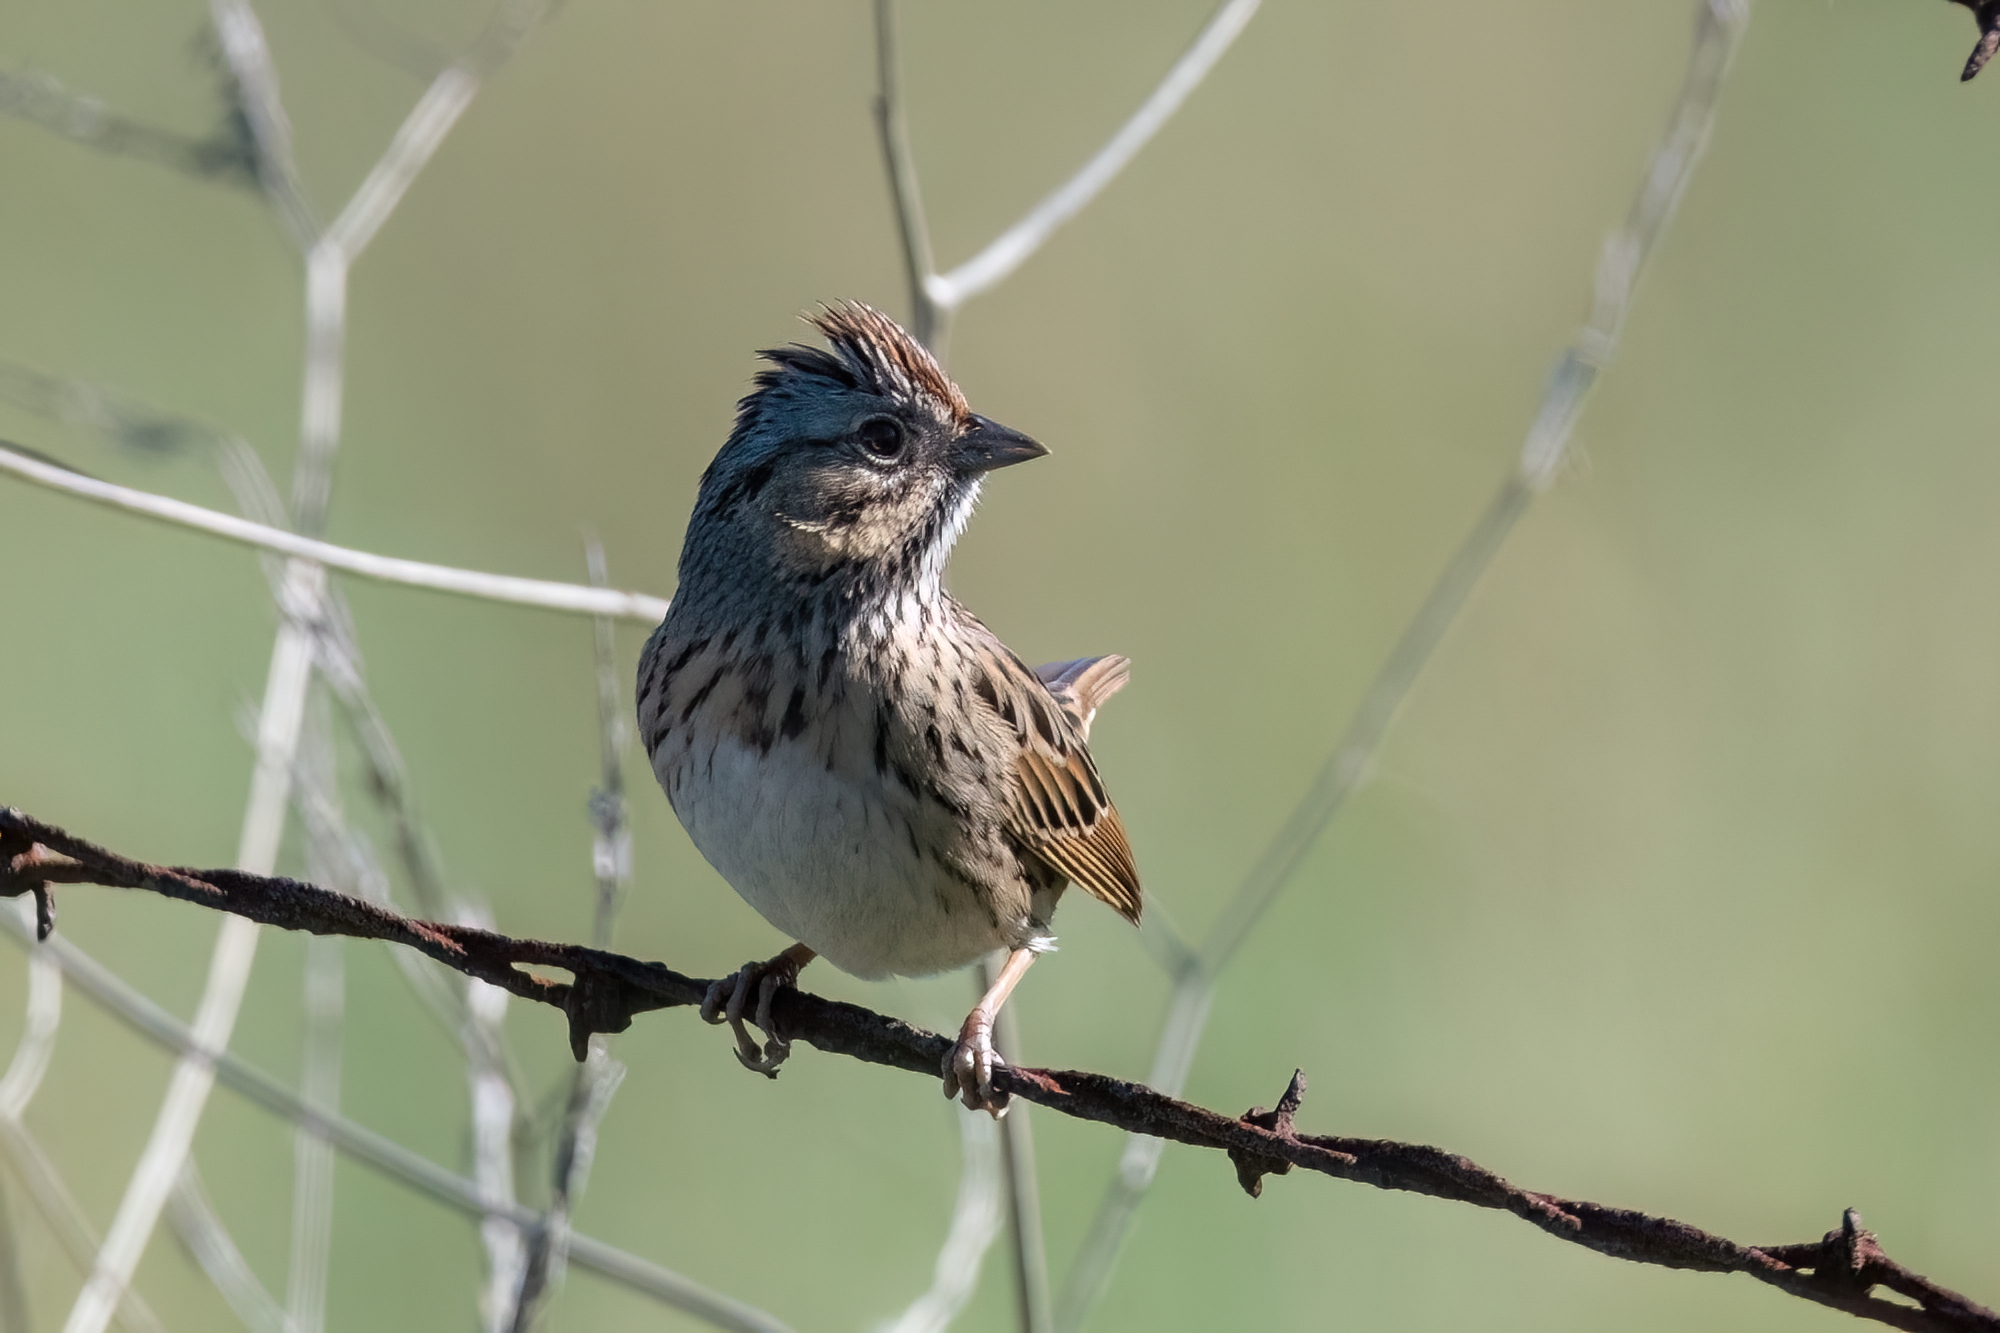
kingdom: Animalia
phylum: Chordata
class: Aves
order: Passeriformes
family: Passerellidae
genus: Melospiza
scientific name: Melospiza lincolnii
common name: Lincoln's sparrow
